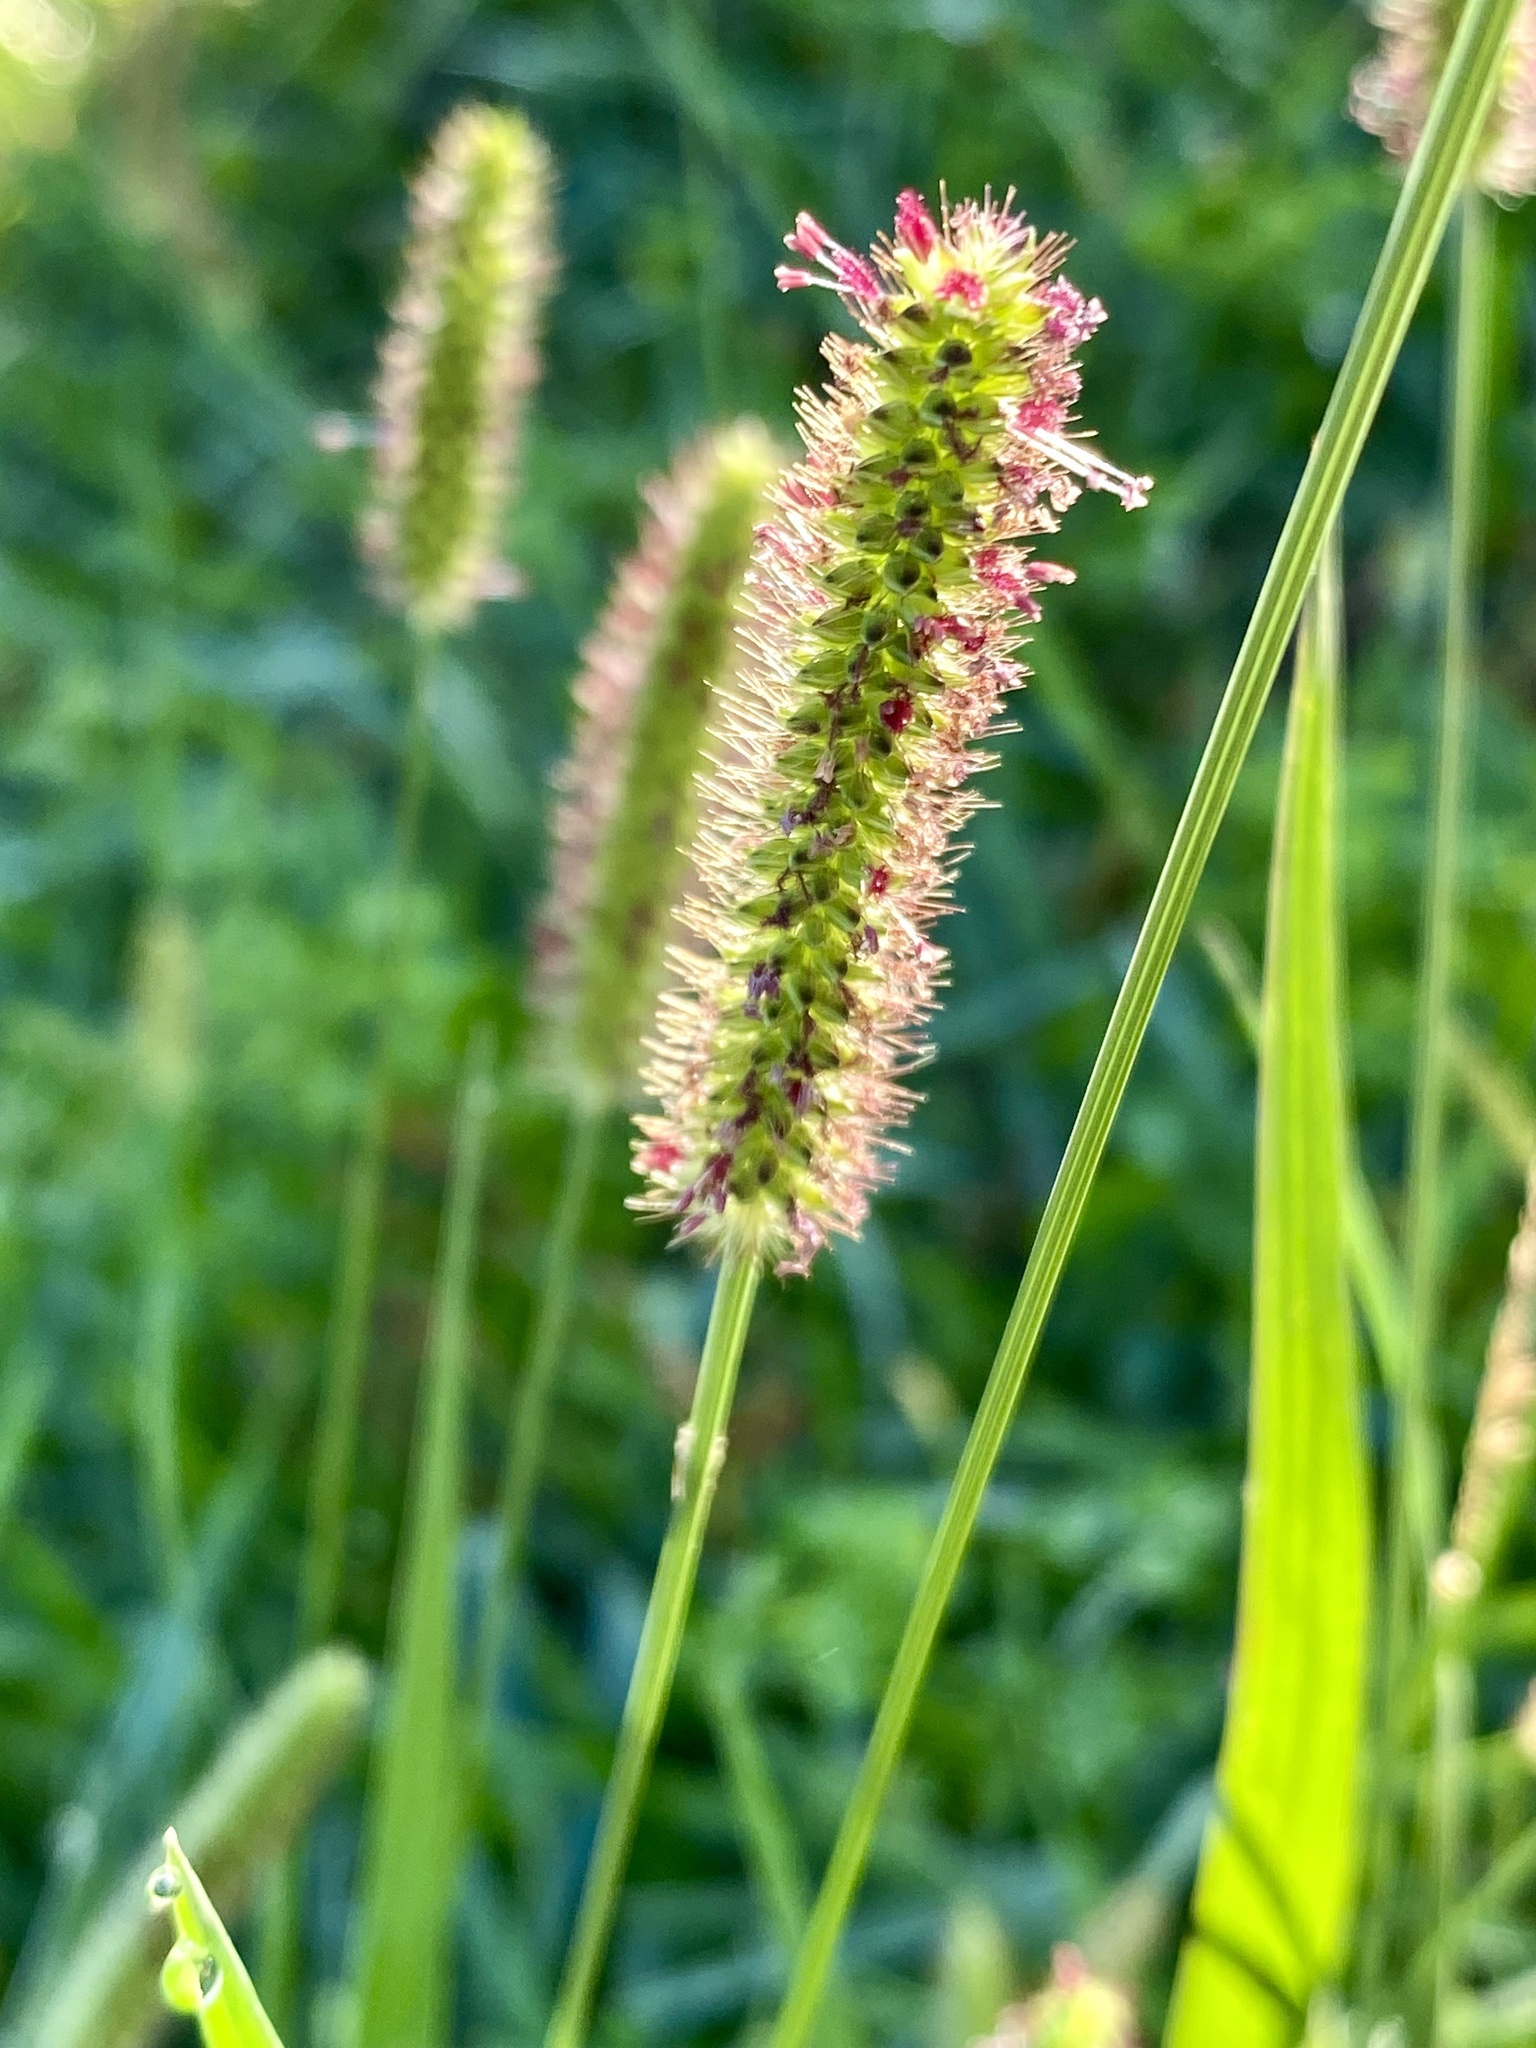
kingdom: Plantae
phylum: Tracheophyta
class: Liliopsida
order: Poales
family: Poaceae
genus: Setaria
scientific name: Setaria parviflora
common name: Knotroot bristle-grass
